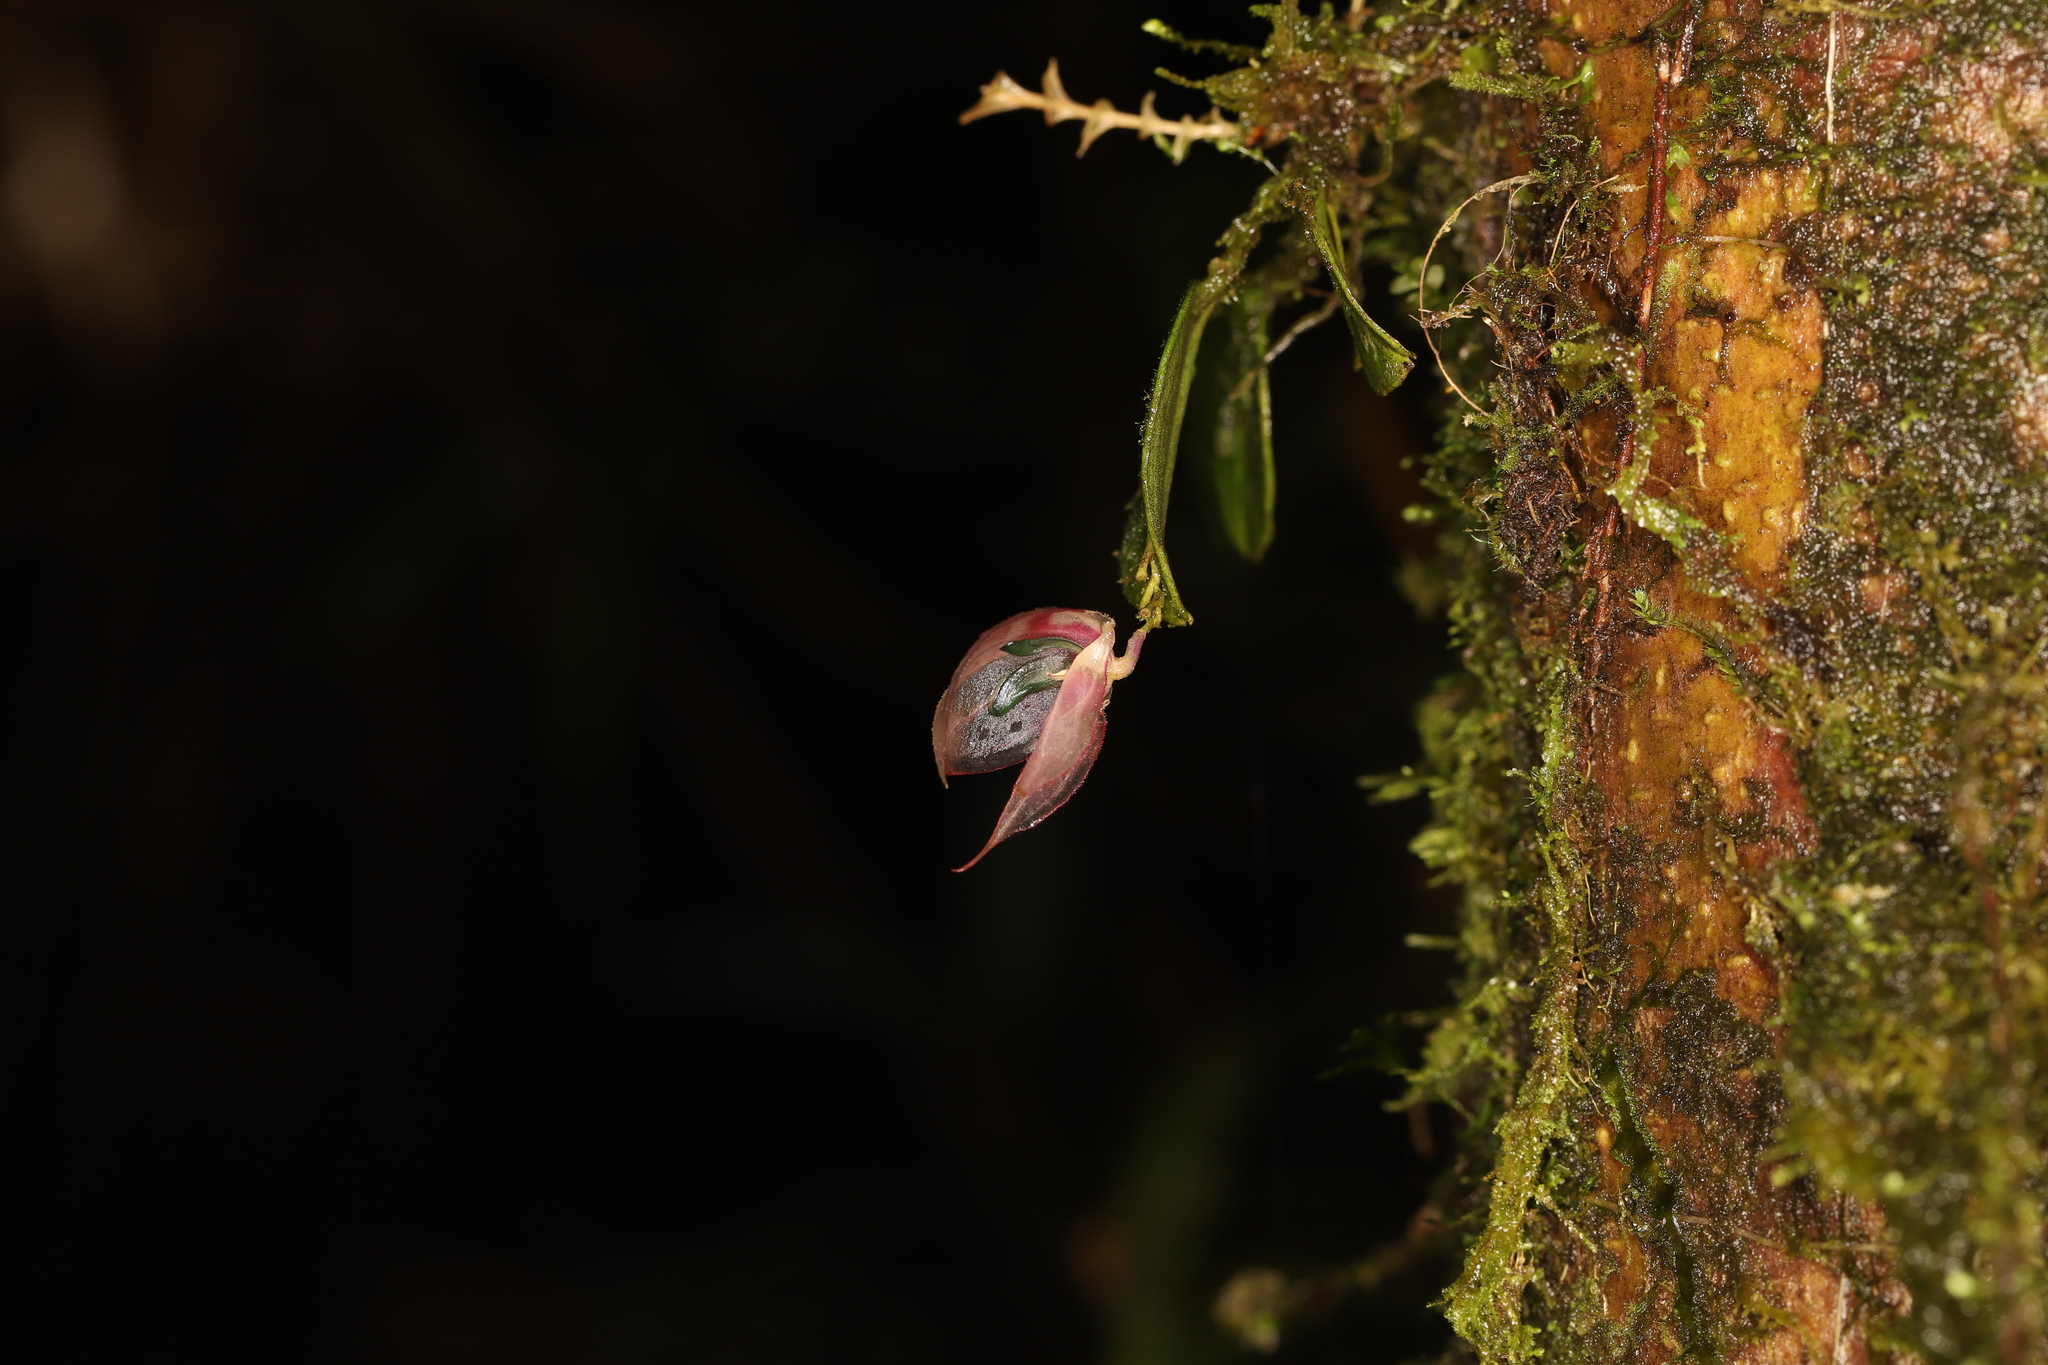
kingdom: Plantae
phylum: Tracheophyta
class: Liliopsida
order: Asparagales
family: Orchidaceae
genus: Lepanthes
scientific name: Lepanthes felis
